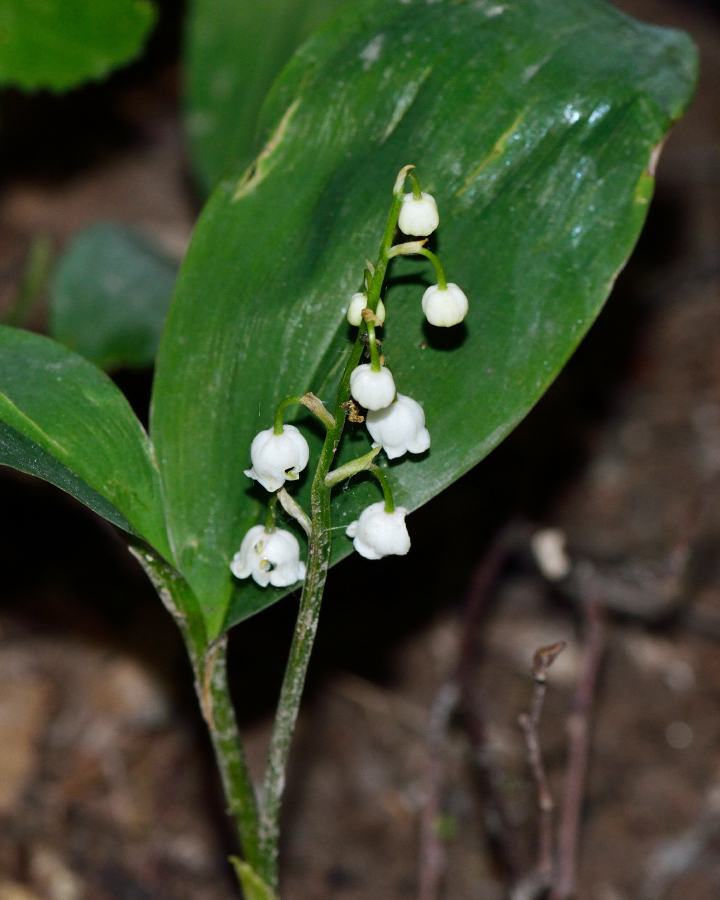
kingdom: Plantae
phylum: Tracheophyta
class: Liliopsida
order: Asparagales
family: Asparagaceae
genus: Convallaria
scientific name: Convallaria majalis
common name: Lily-of-the-valley
